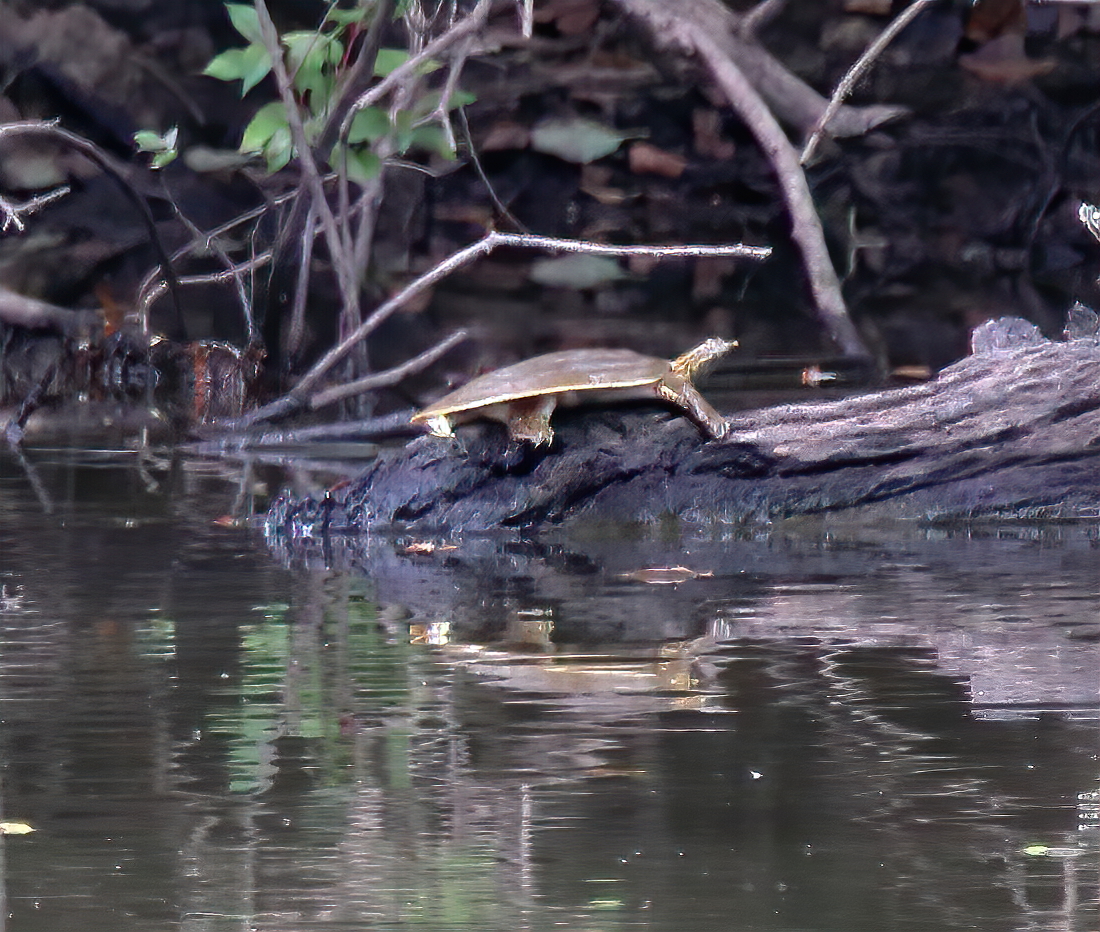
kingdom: Animalia
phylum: Chordata
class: Testudines
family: Trionychidae
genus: Apalone
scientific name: Apalone mutica
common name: Smooth softshell turtle
